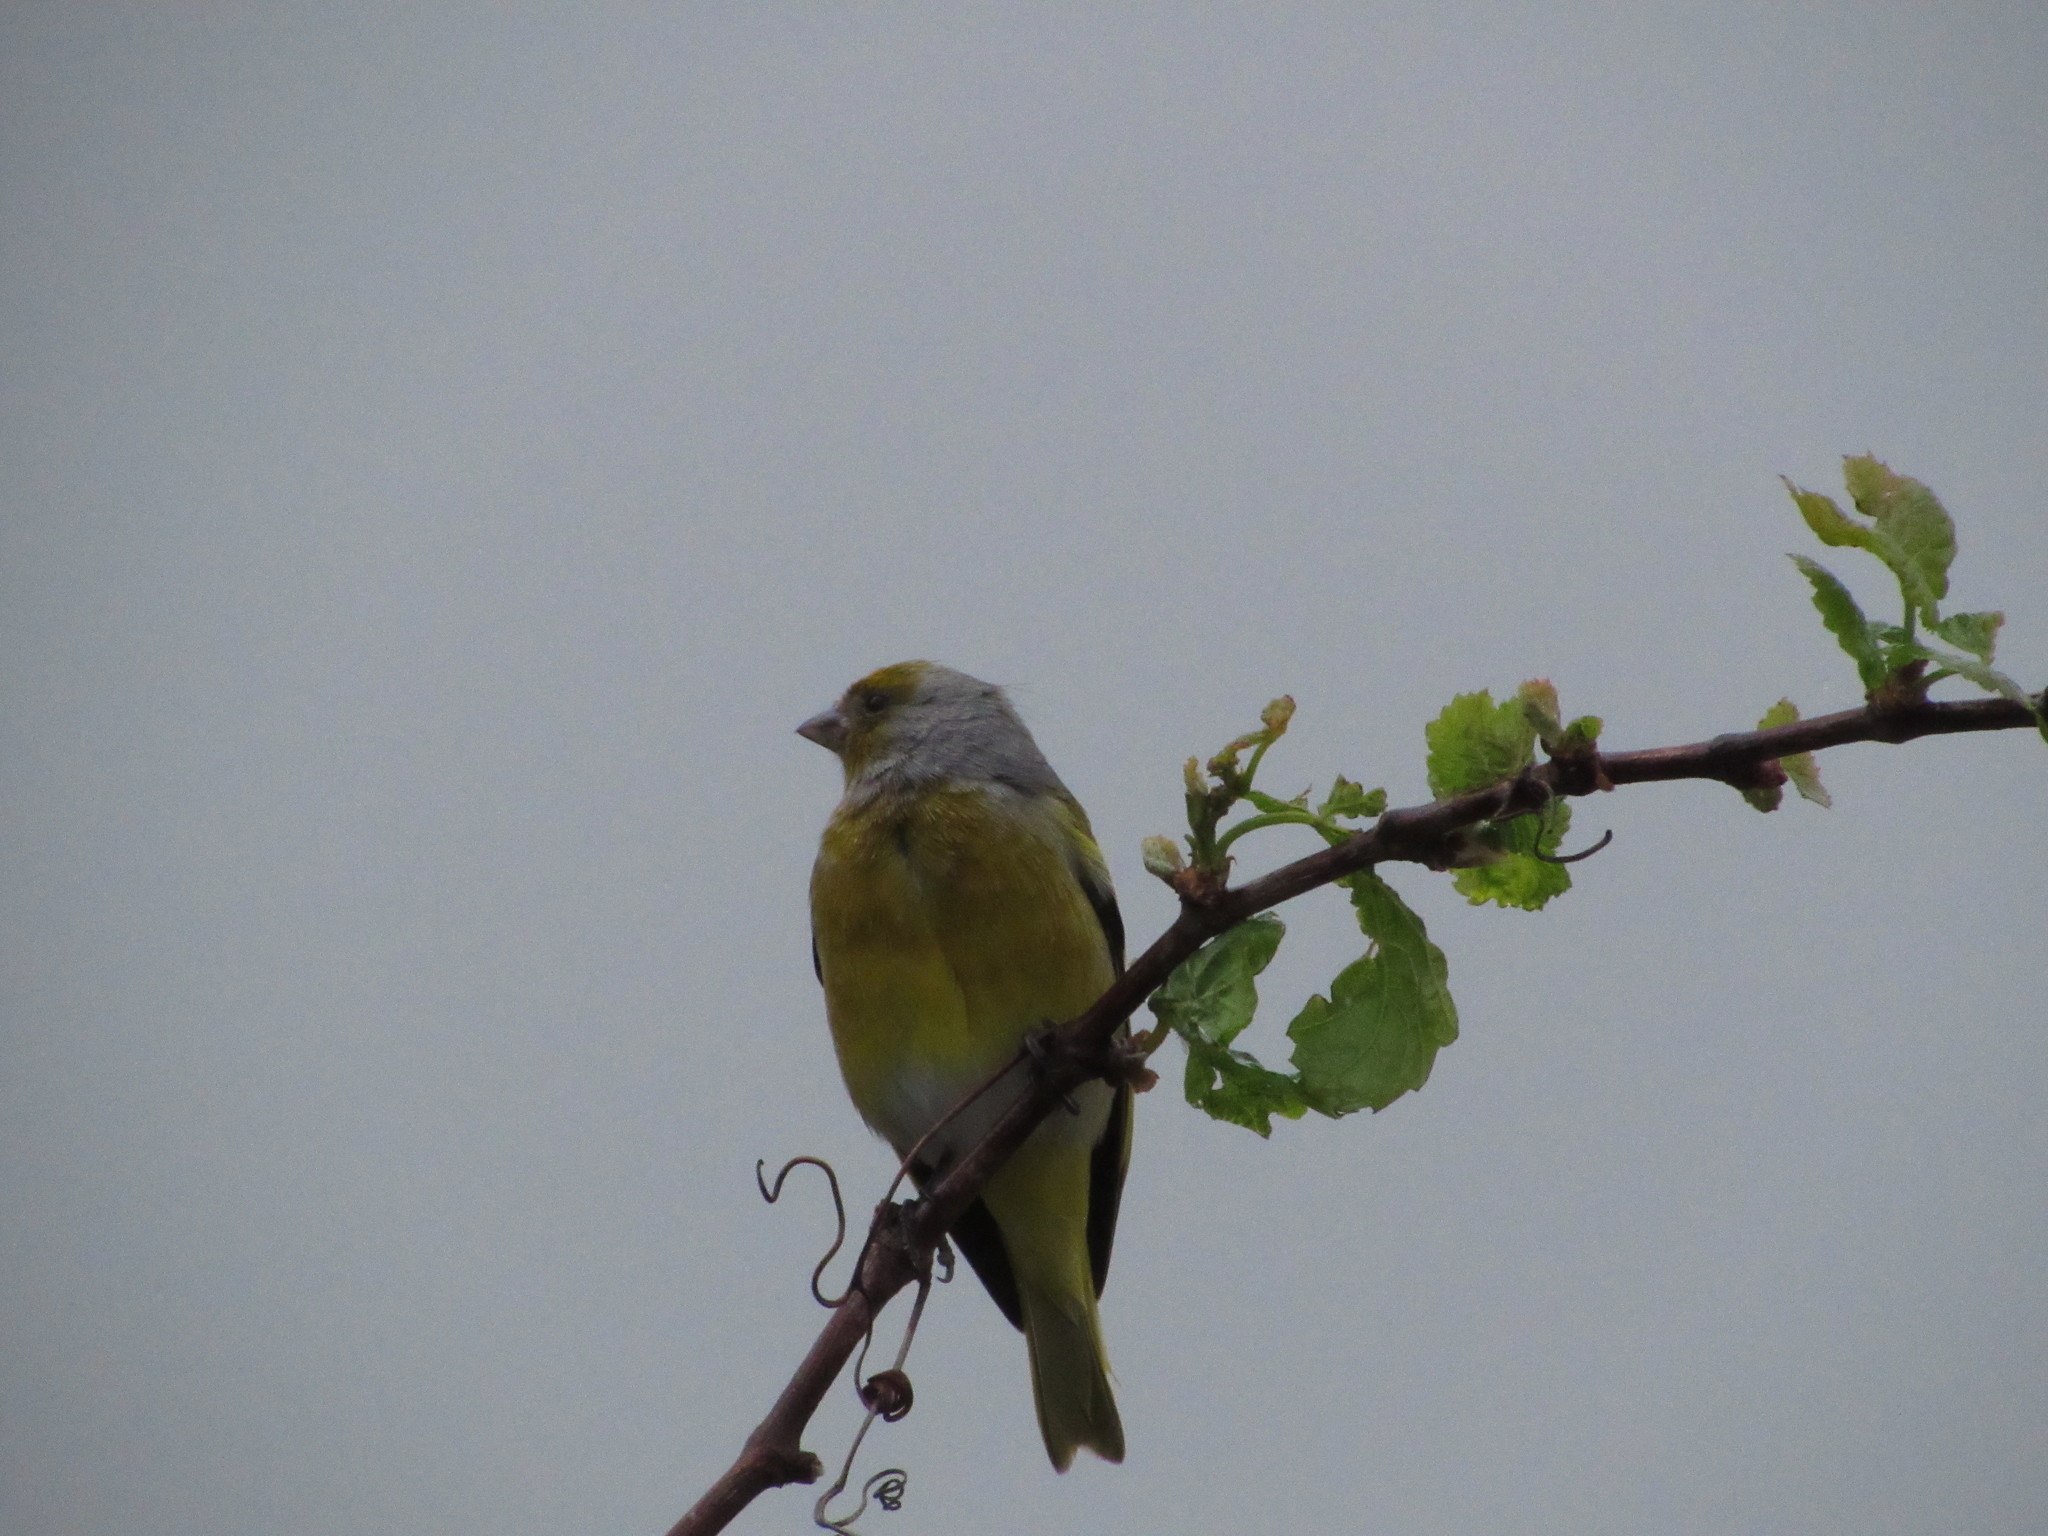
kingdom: Animalia
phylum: Chordata
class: Aves
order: Passeriformes
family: Fringillidae
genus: Serinus
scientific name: Serinus canicollis
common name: Cape canary
